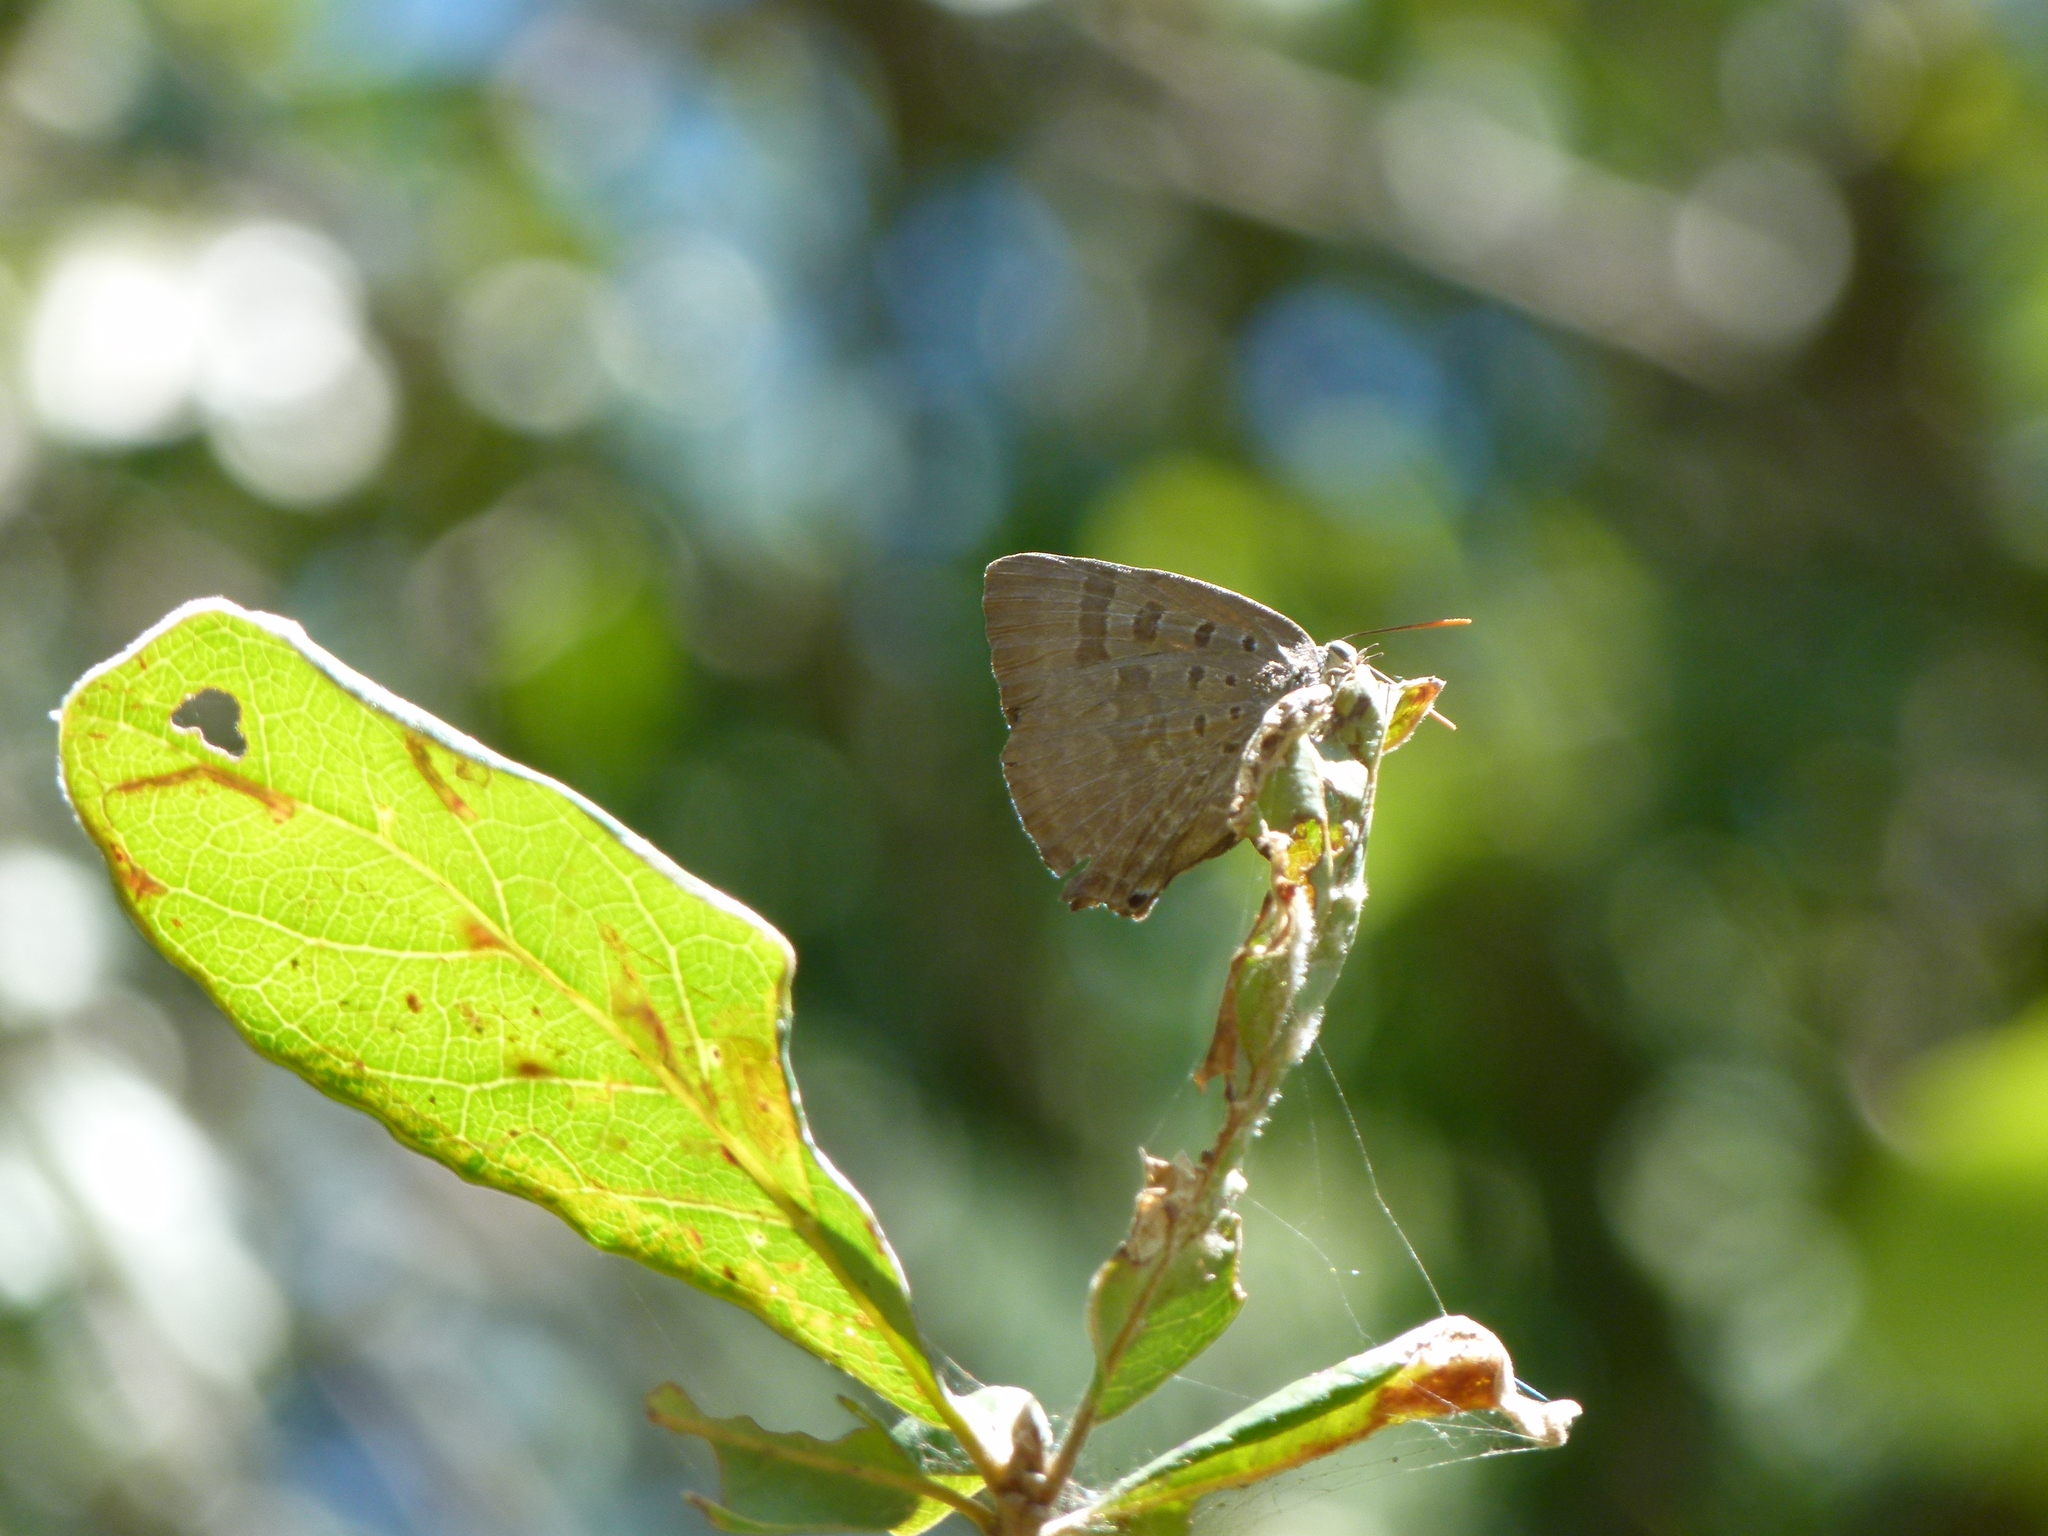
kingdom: Animalia
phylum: Arthropoda
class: Insecta
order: Lepidoptera
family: Lycaenidae
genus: Arhopala
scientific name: Arhopala
